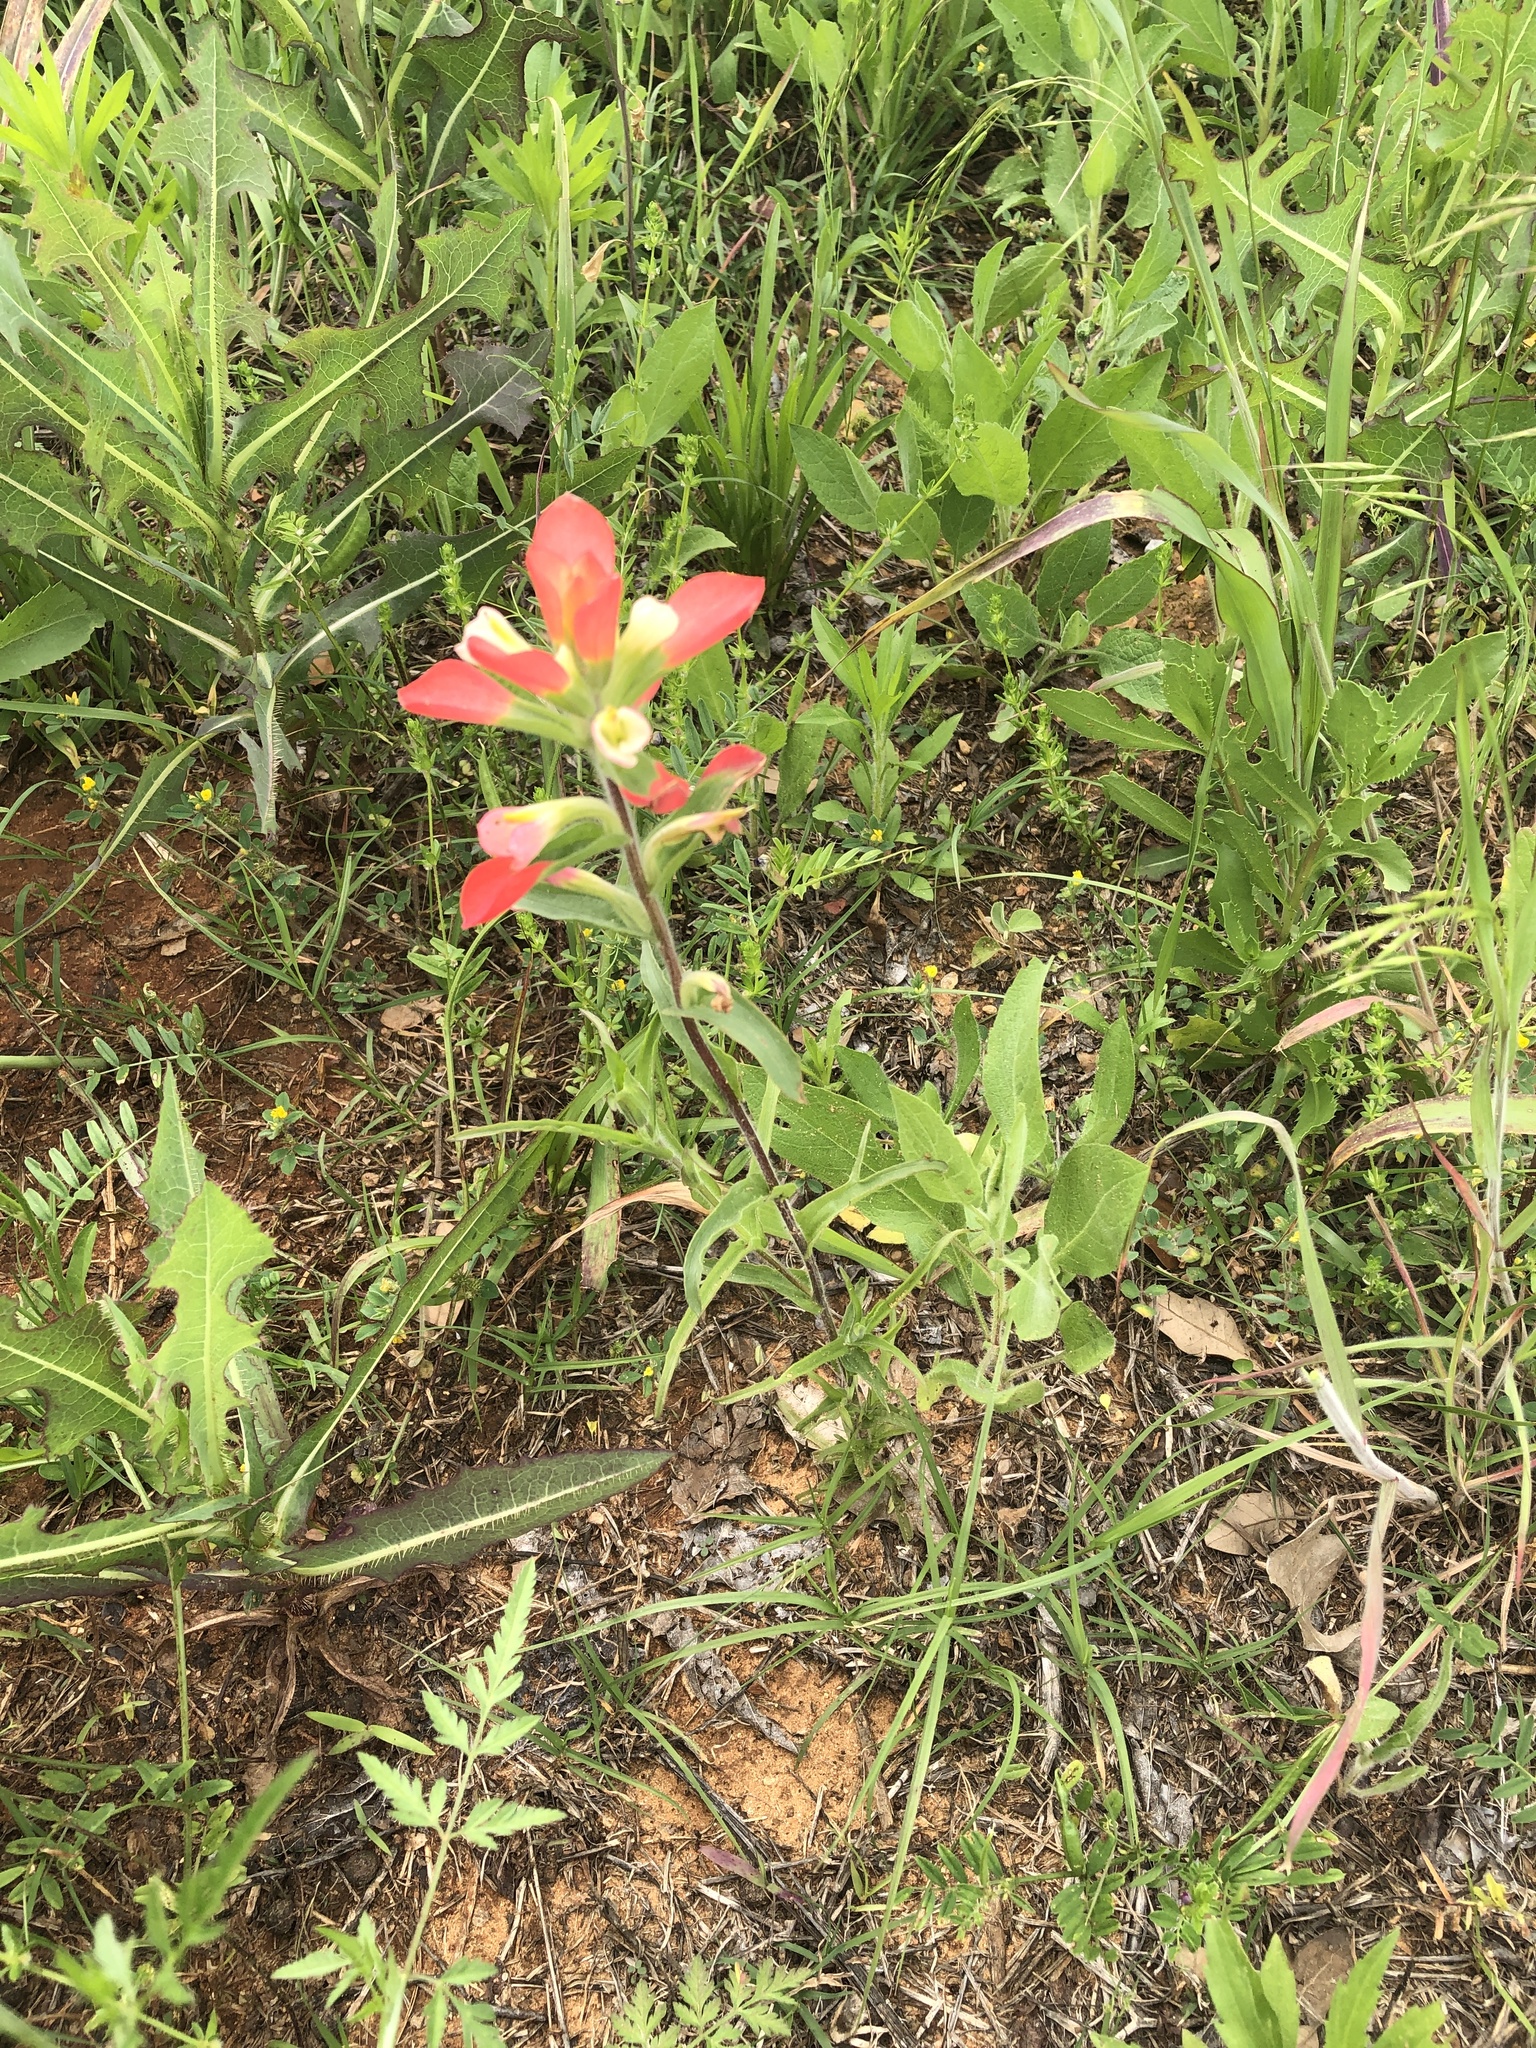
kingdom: Plantae
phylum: Tracheophyta
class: Magnoliopsida
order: Lamiales
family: Orobanchaceae
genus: Castilleja
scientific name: Castilleja indivisa
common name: Texas paintbrush
